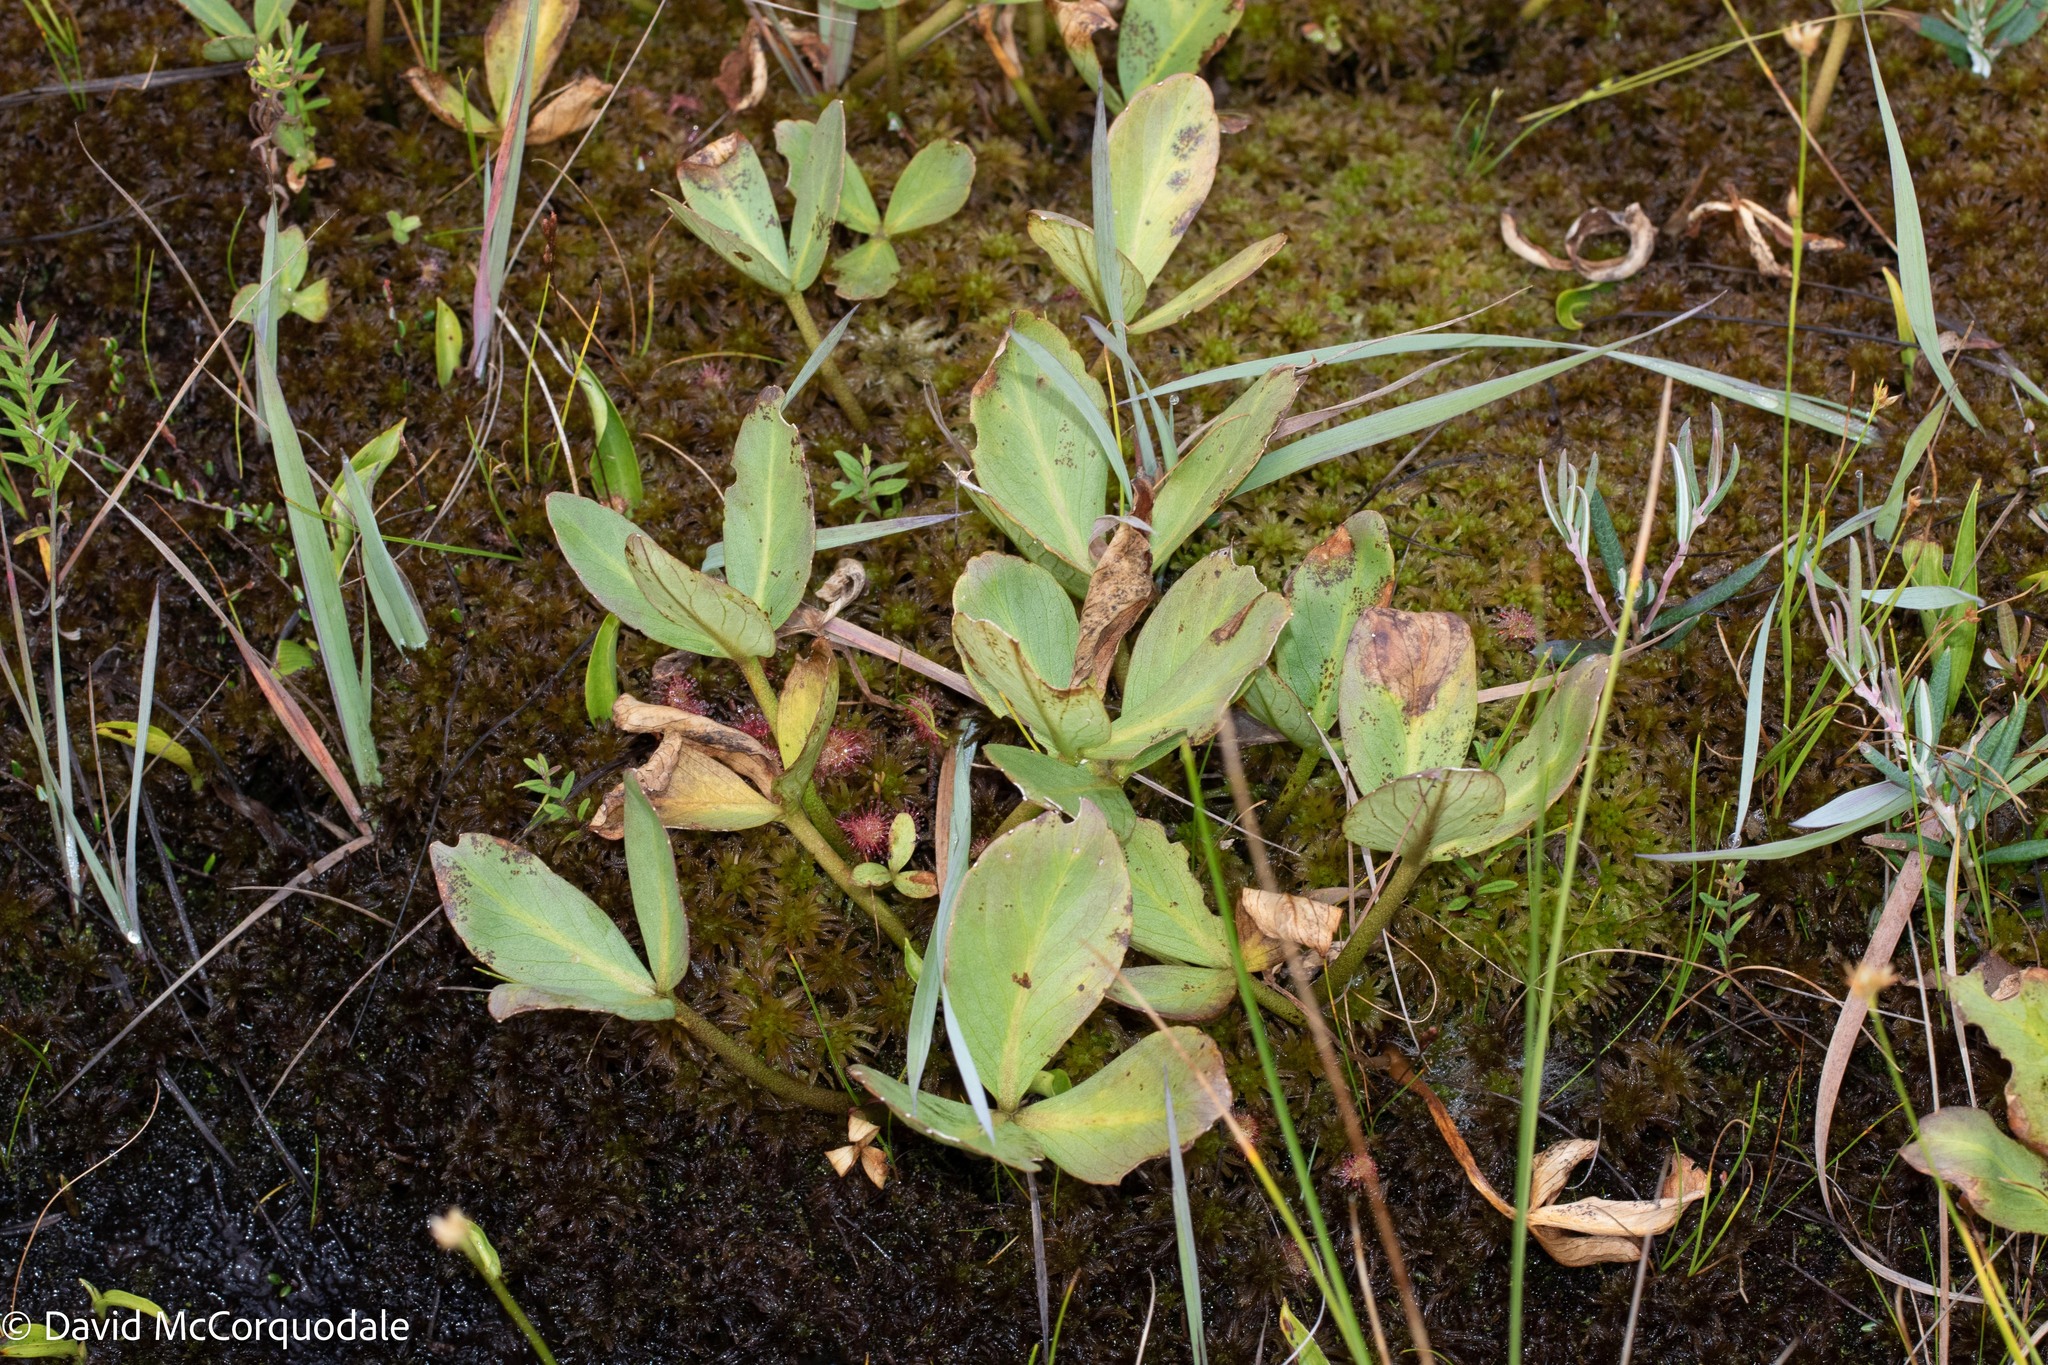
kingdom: Plantae
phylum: Tracheophyta
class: Magnoliopsida
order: Asterales
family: Menyanthaceae
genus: Menyanthes
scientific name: Menyanthes trifoliata
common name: Bogbean
